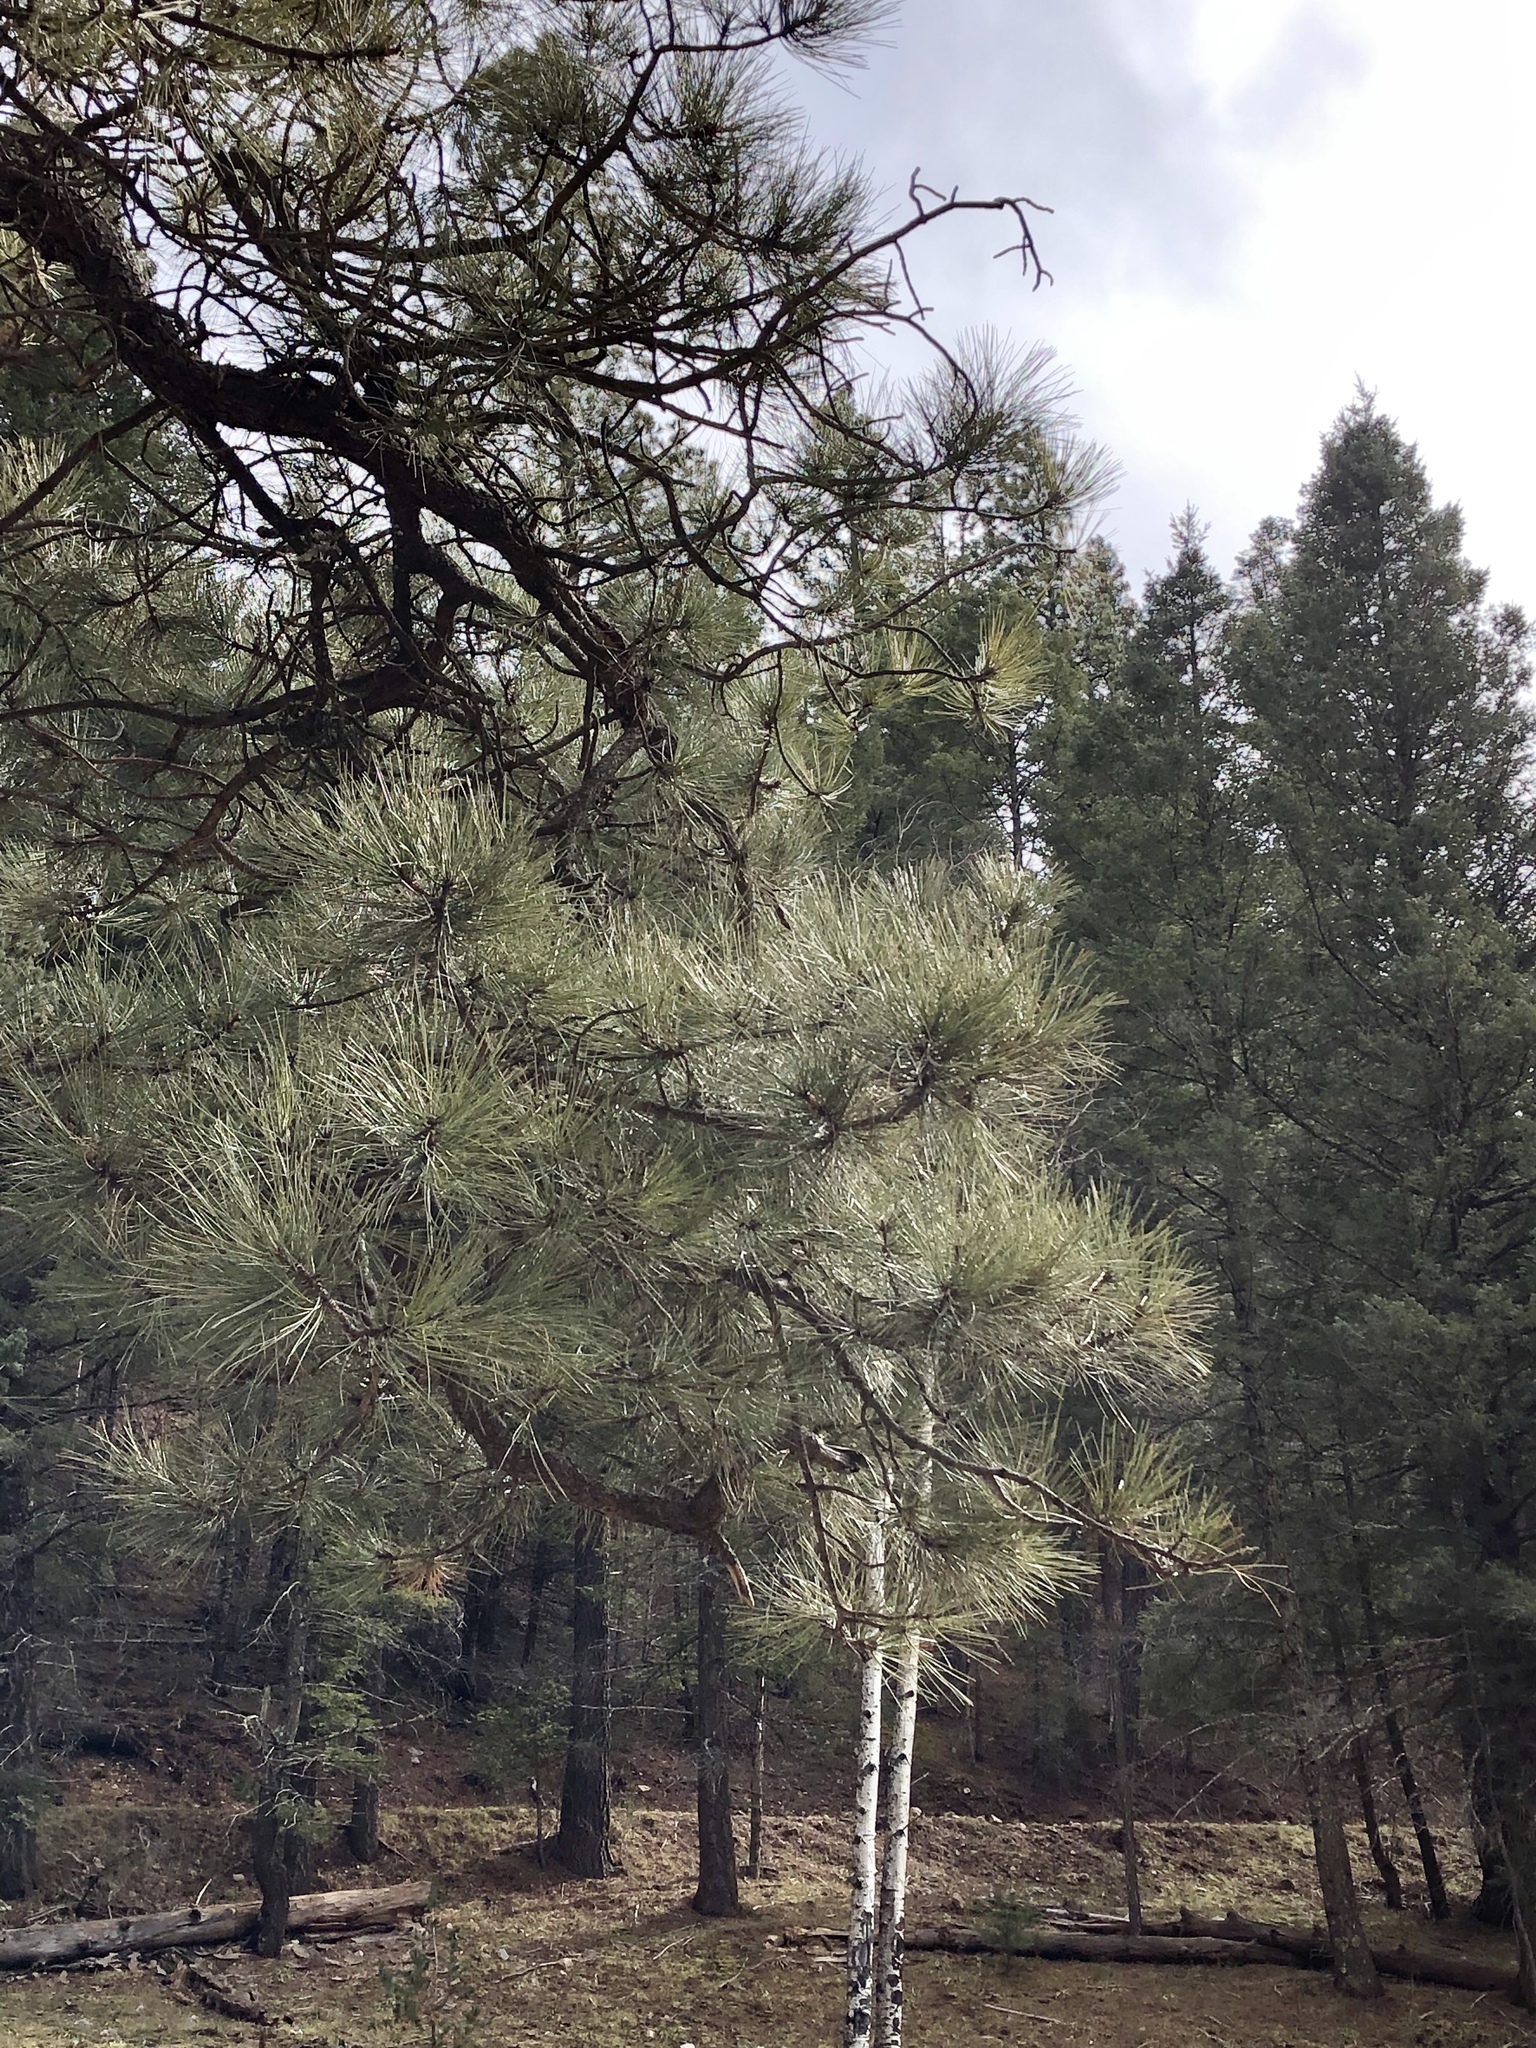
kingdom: Plantae
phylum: Tracheophyta
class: Pinopsida
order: Pinales
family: Pinaceae
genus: Pinus
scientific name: Pinus ponderosa
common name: Western yellow-pine
